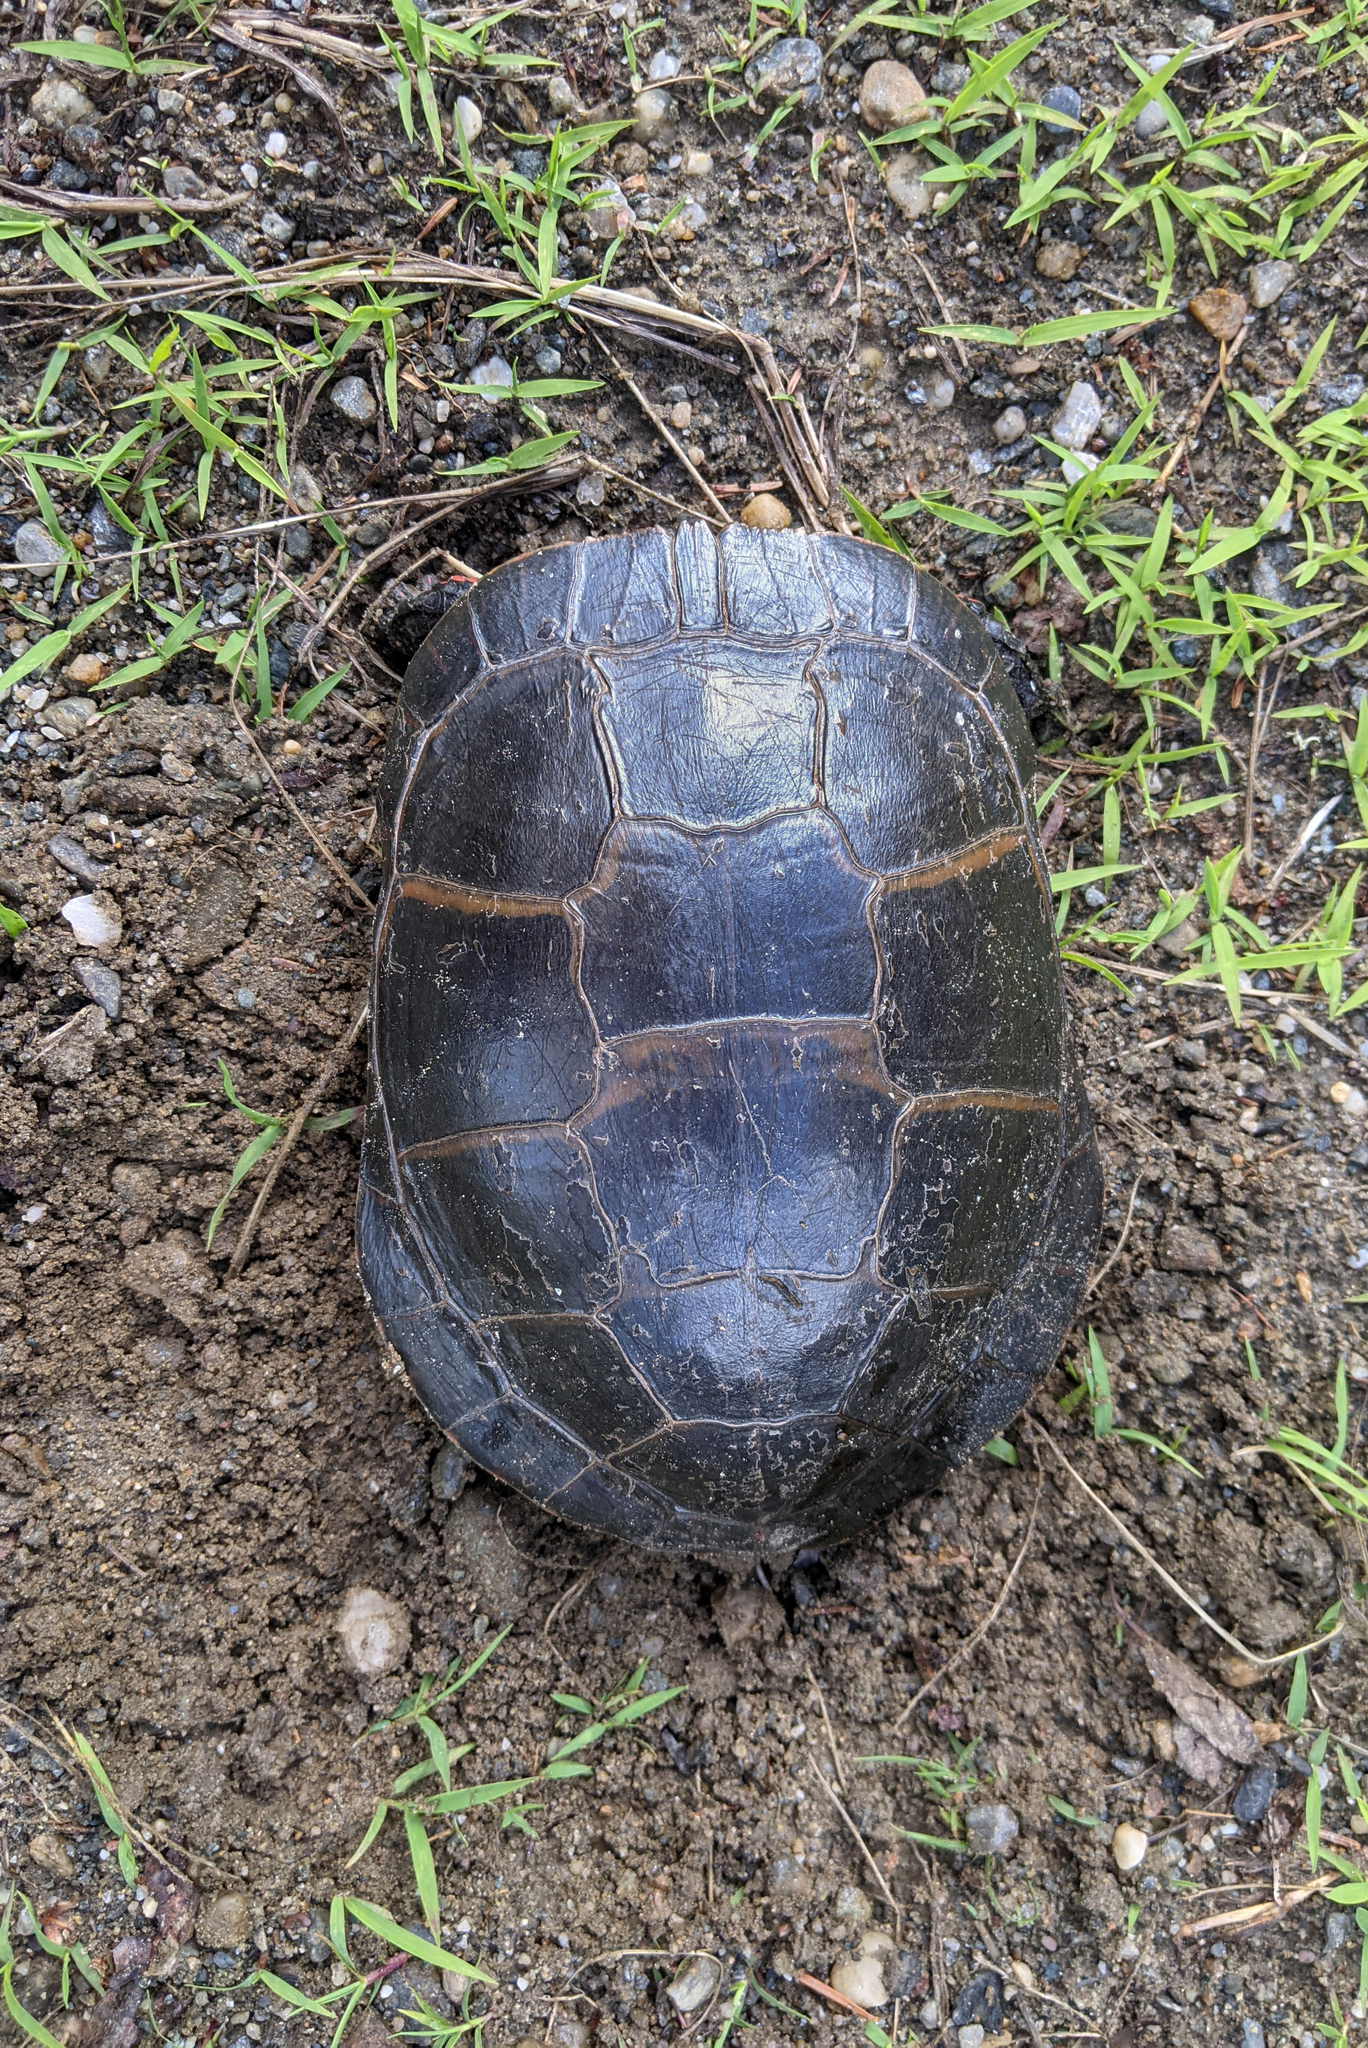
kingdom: Animalia
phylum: Chordata
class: Testudines
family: Emydidae
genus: Chrysemys
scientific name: Chrysemys picta
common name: Painted turtle
